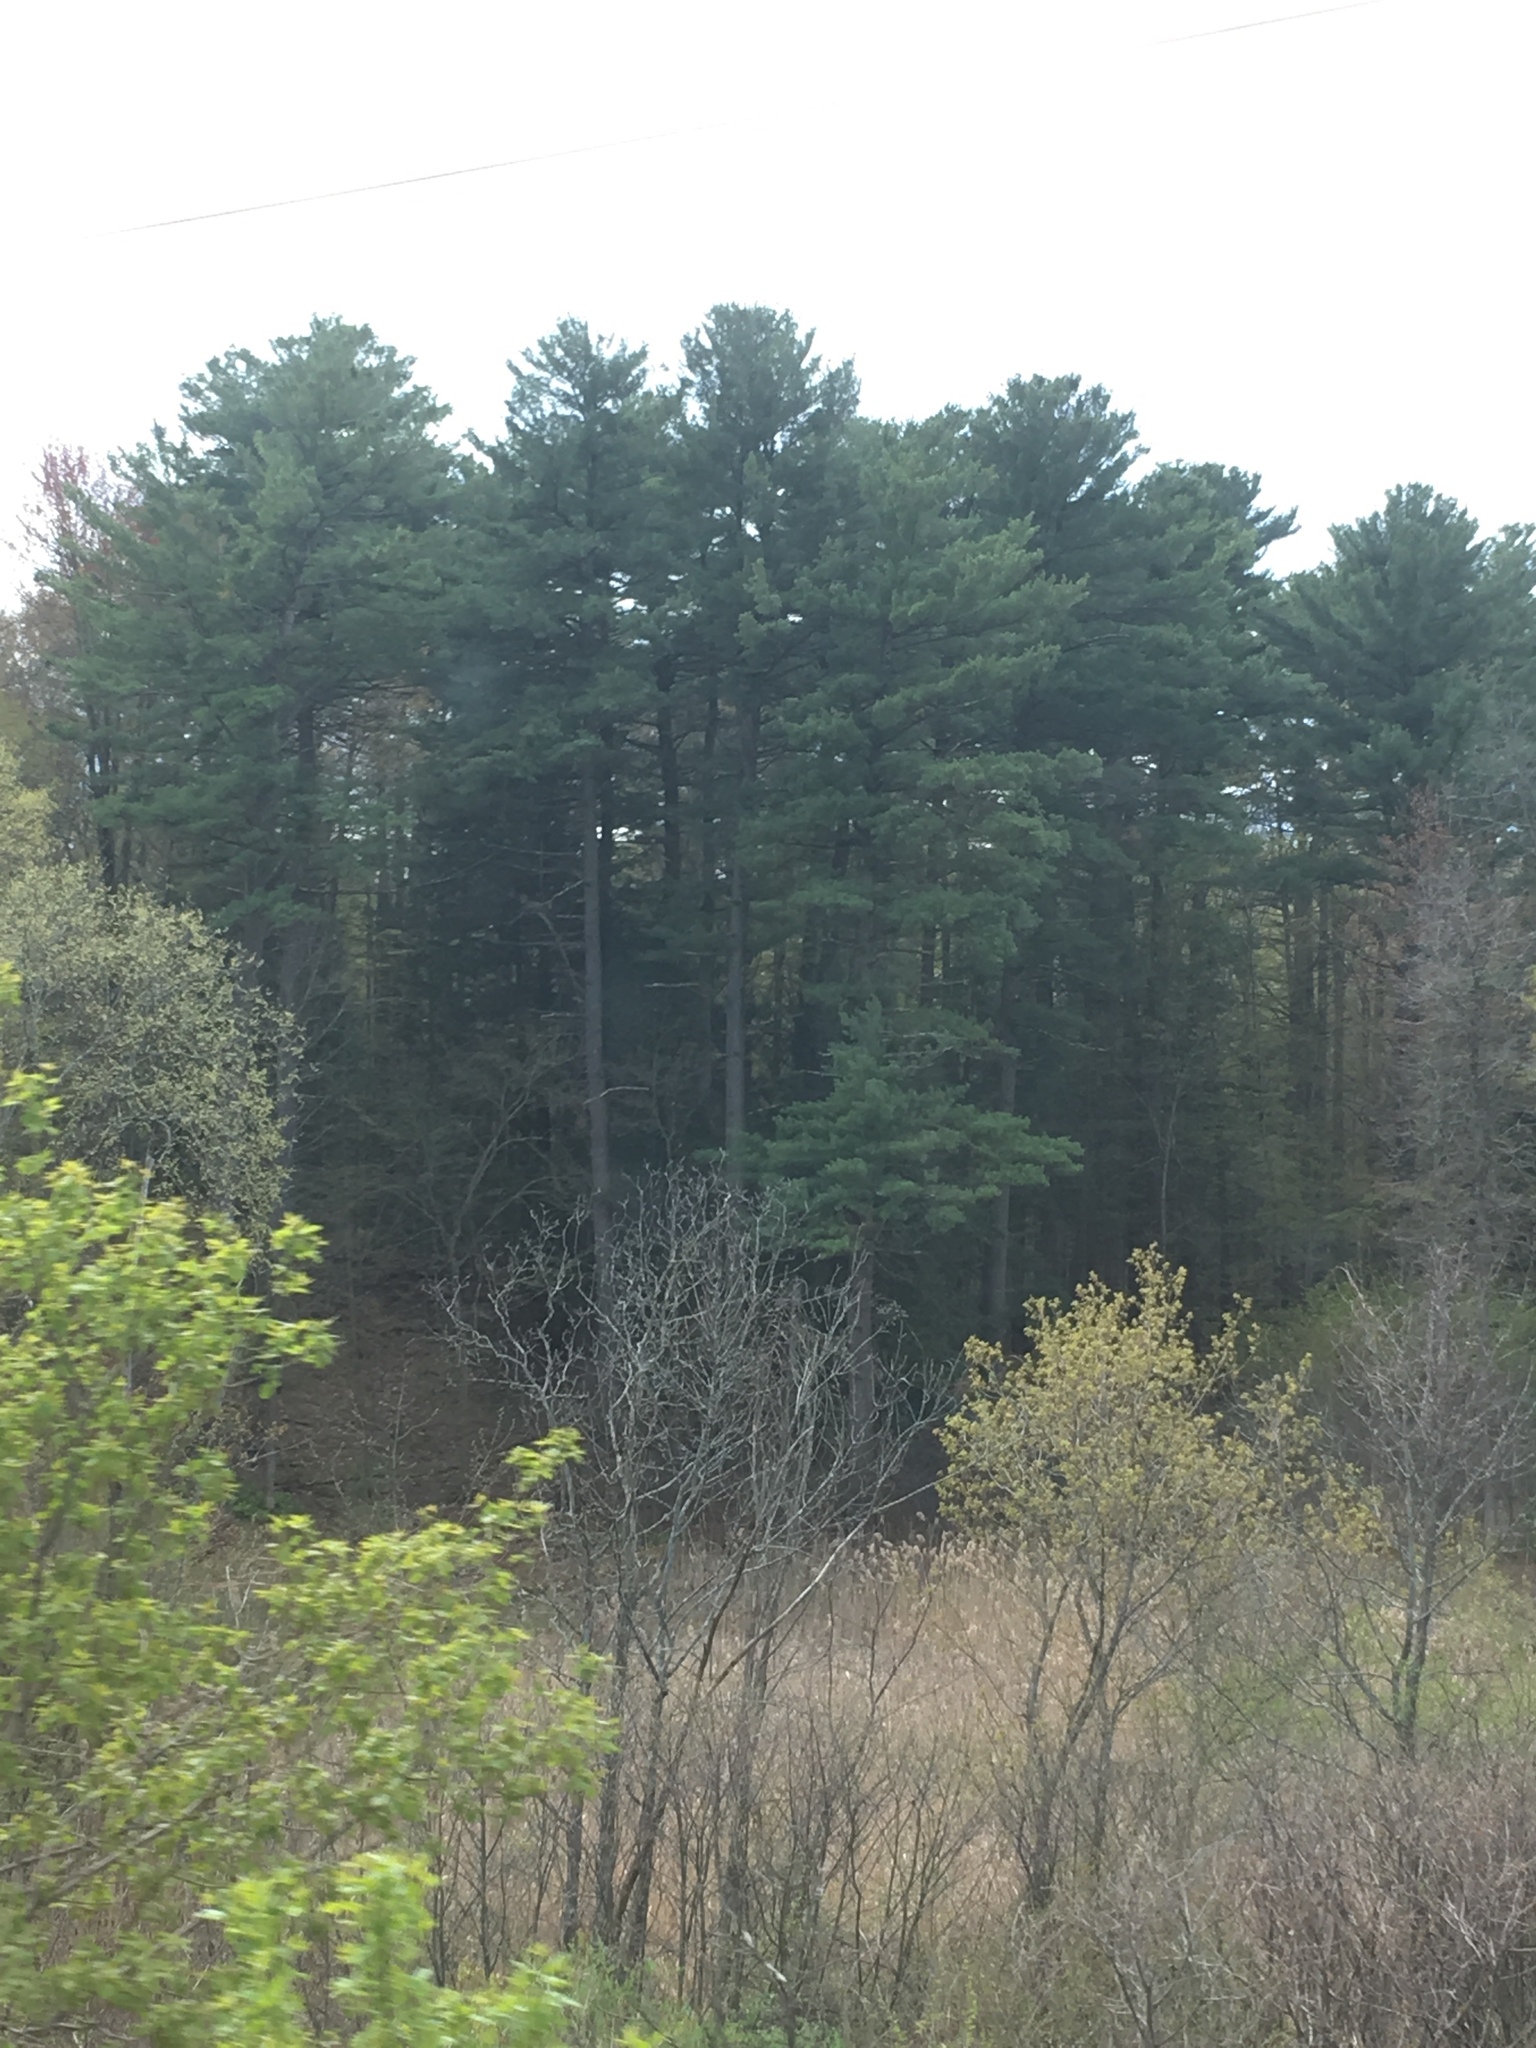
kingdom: Plantae
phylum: Tracheophyta
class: Pinopsida
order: Pinales
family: Pinaceae
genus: Pinus
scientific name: Pinus strobus
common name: Weymouth pine
